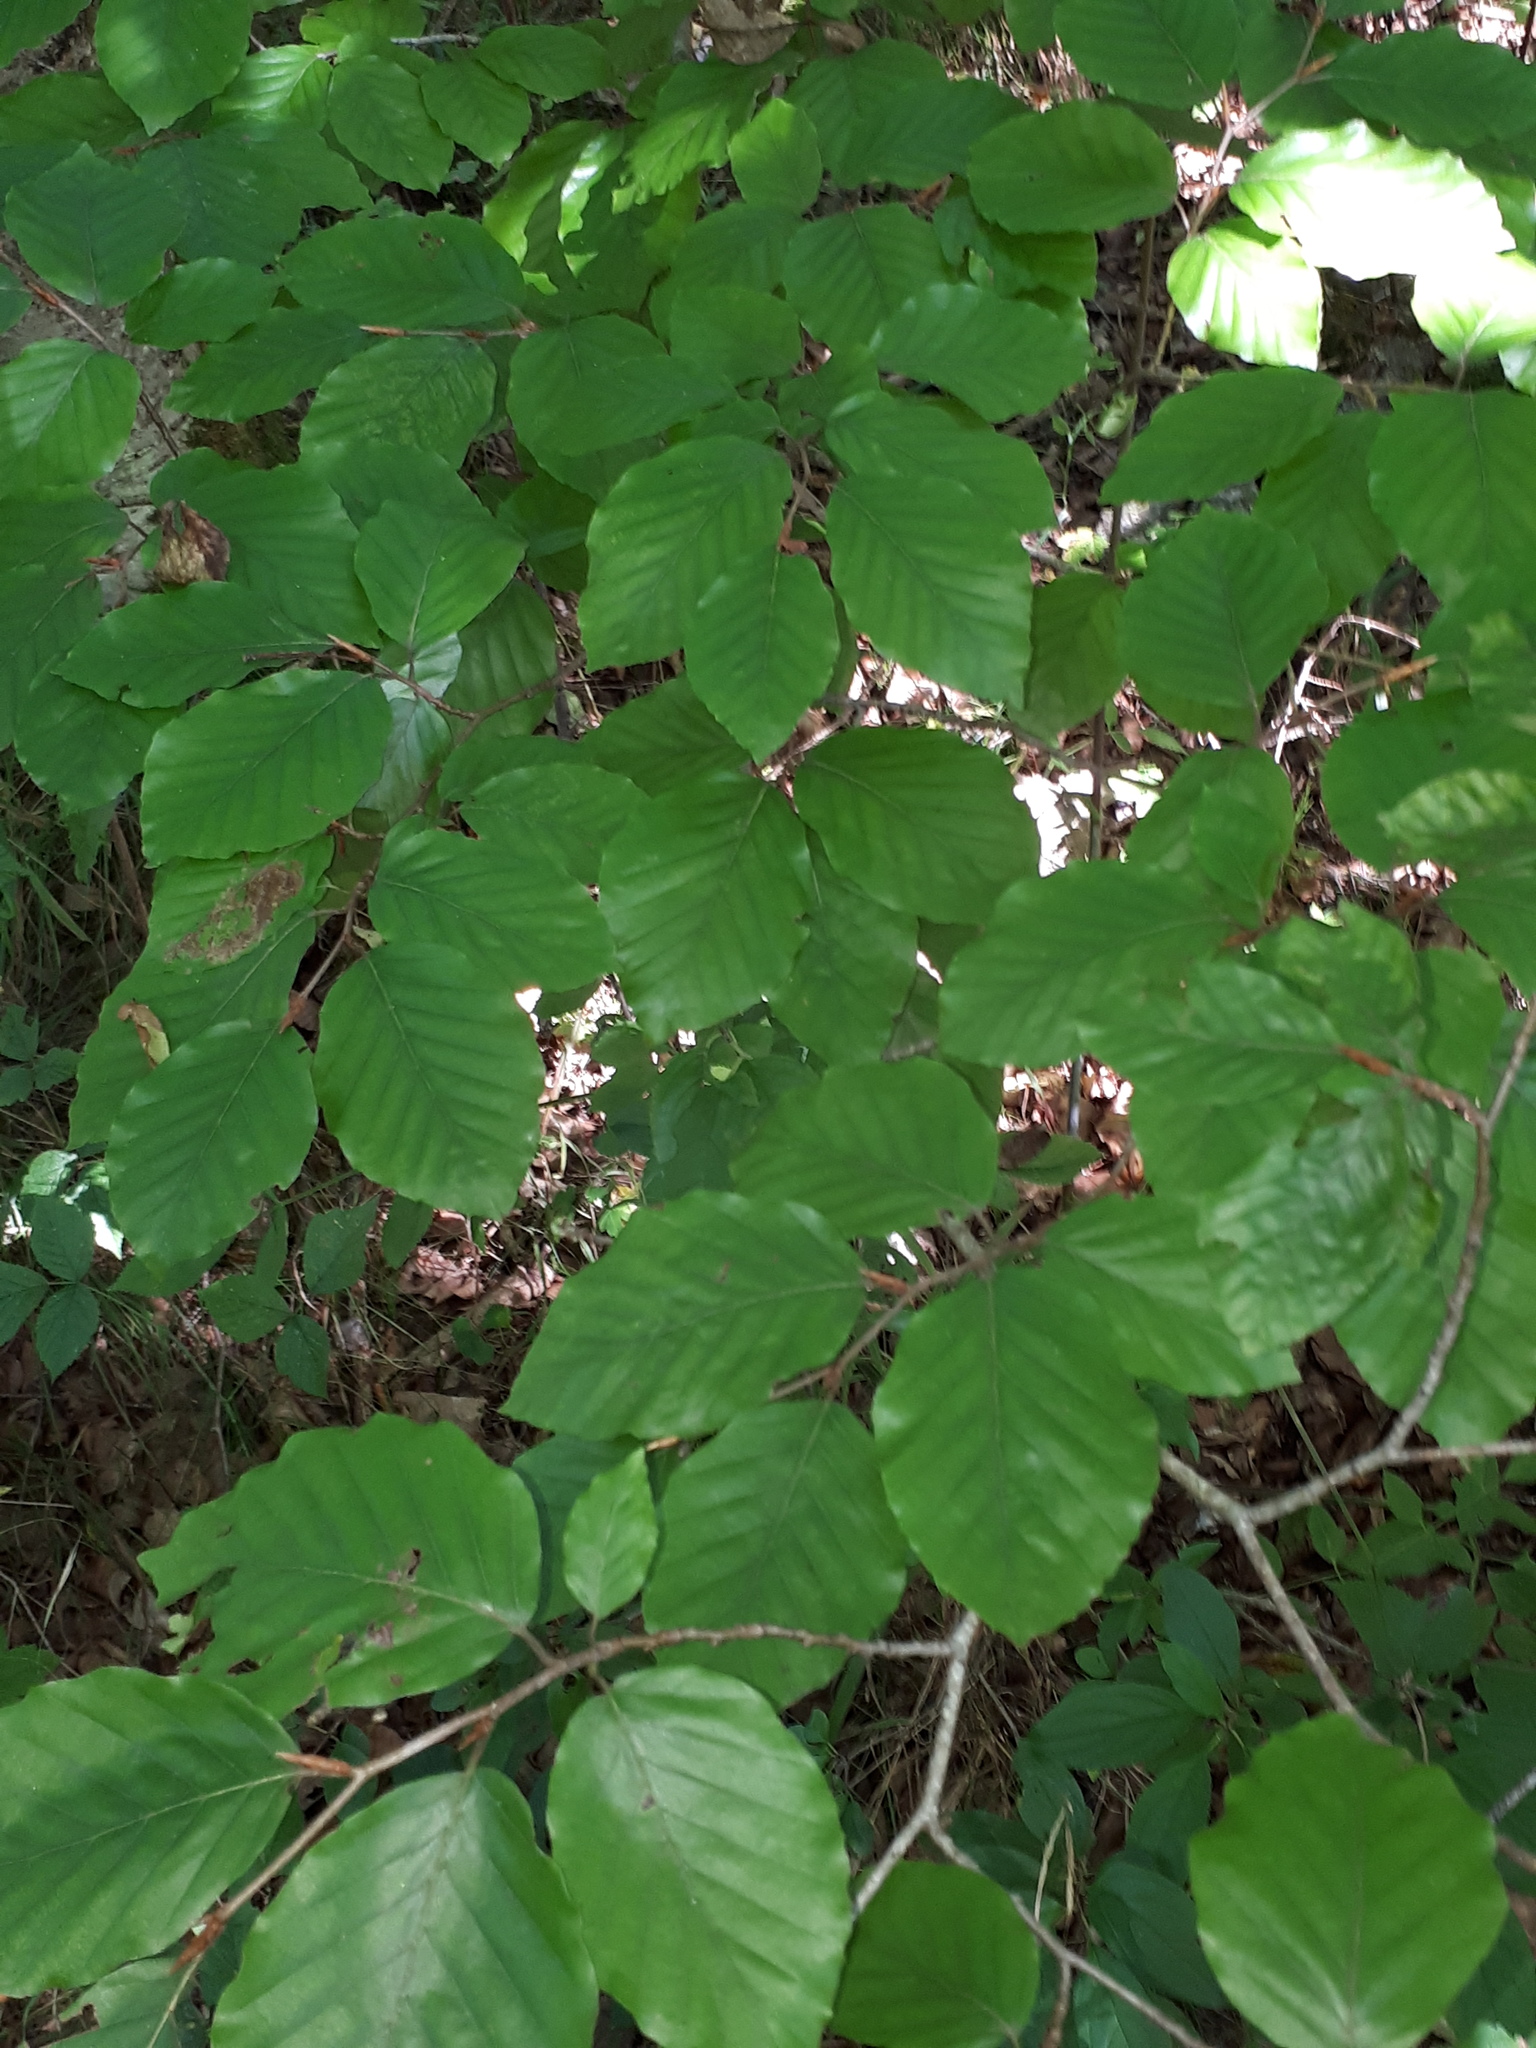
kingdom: Plantae
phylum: Tracheophyta
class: Magnoliopsida
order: Fagales
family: Fagaceae
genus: Fagus
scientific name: Fagus sylvatica
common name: Beech
